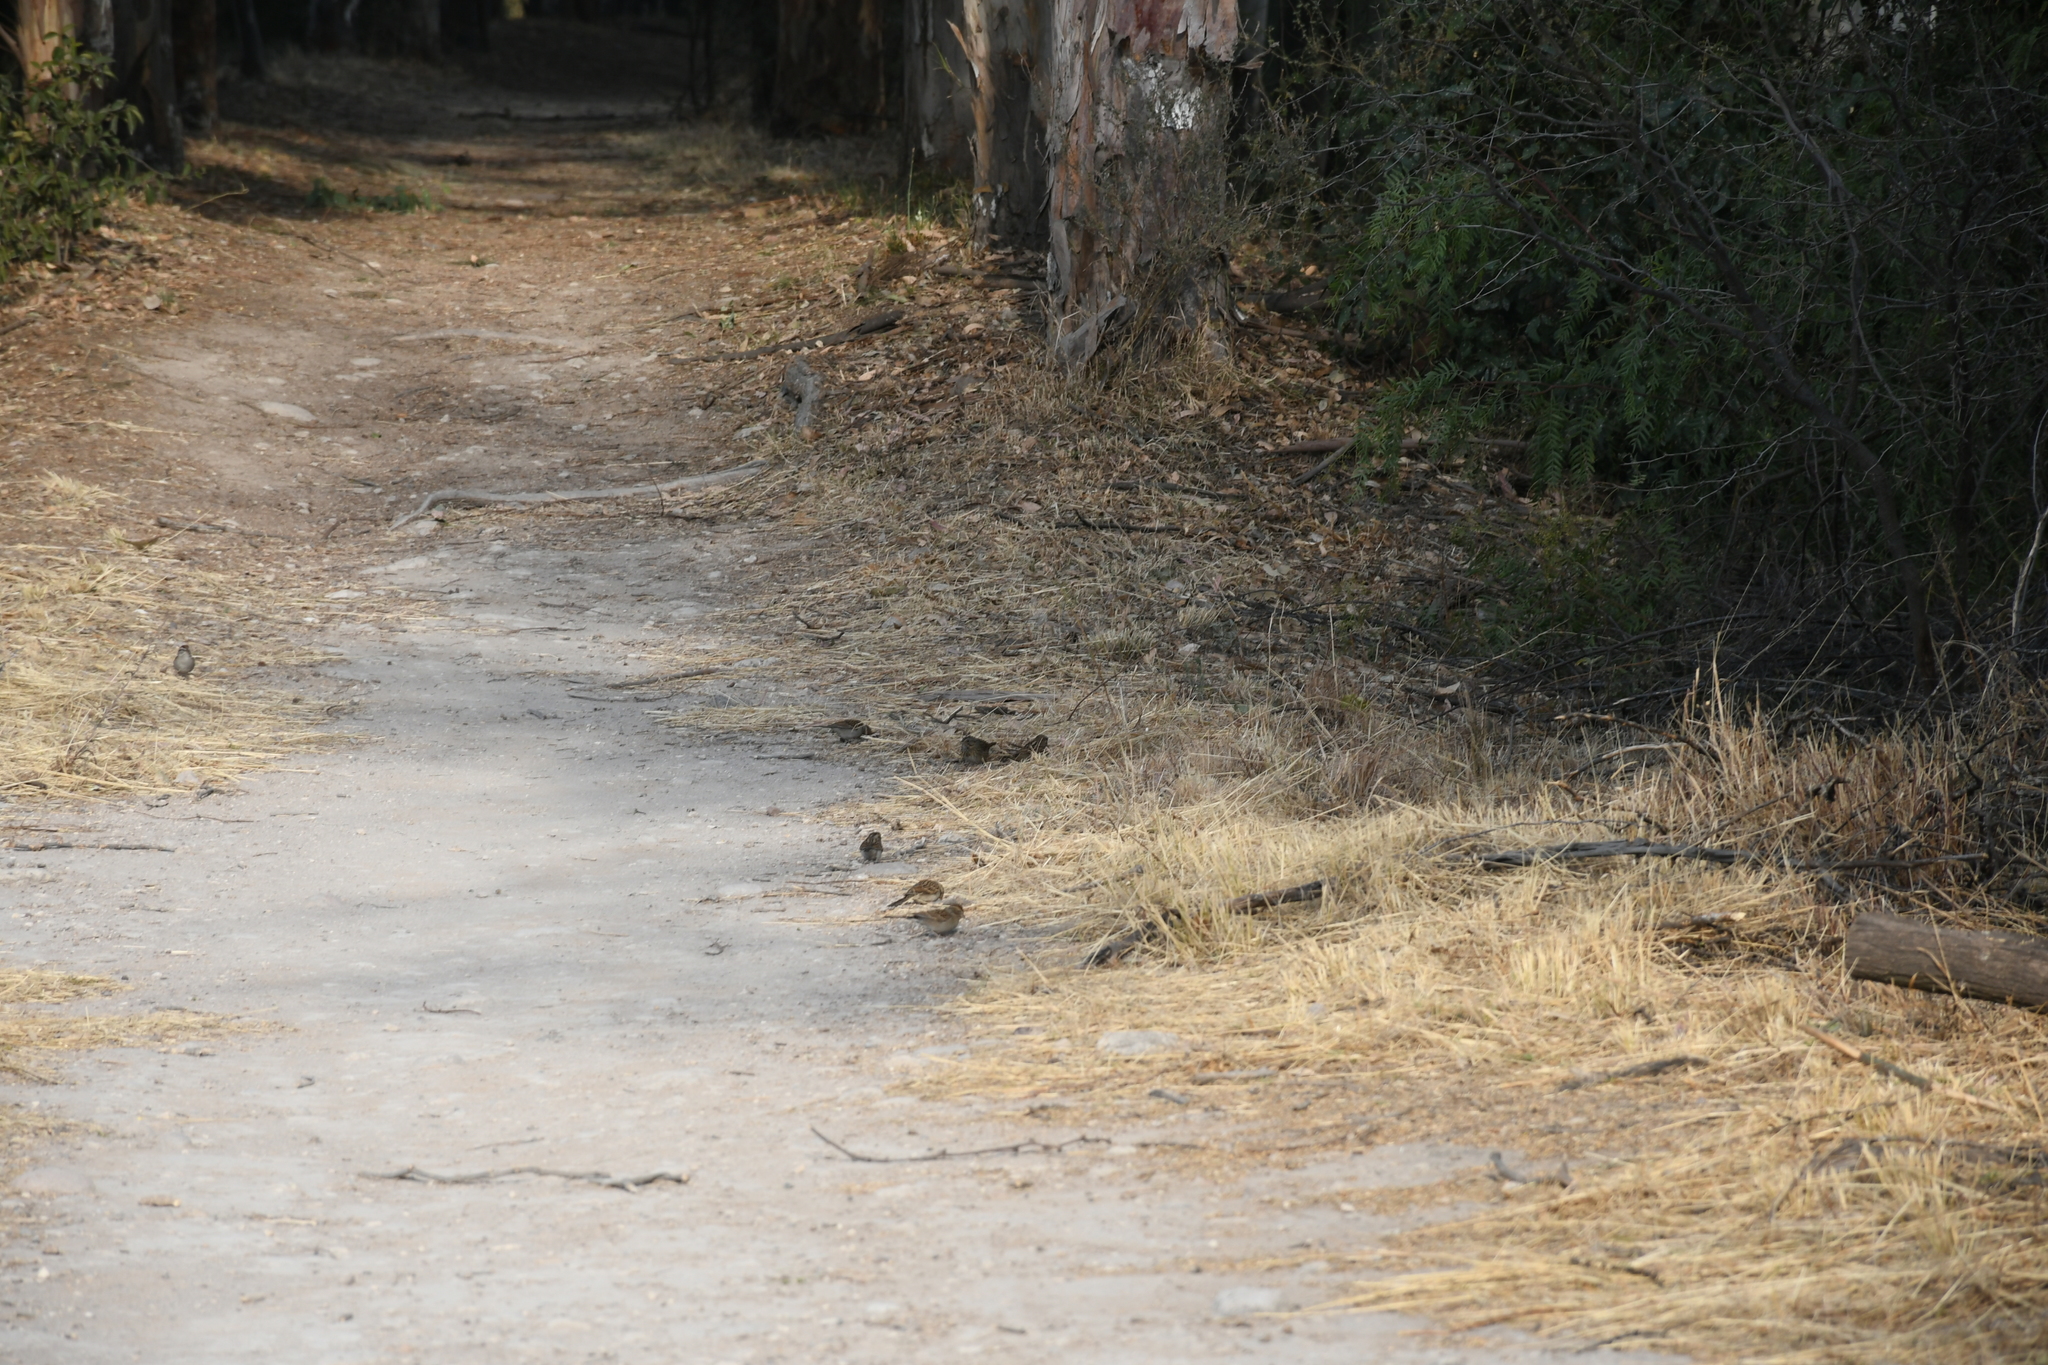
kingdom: Animalia
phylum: Chordata
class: Aves
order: Passeriformes
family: Passerellidae
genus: Spizella
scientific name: Spizella passerina
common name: Chipping sparrow
